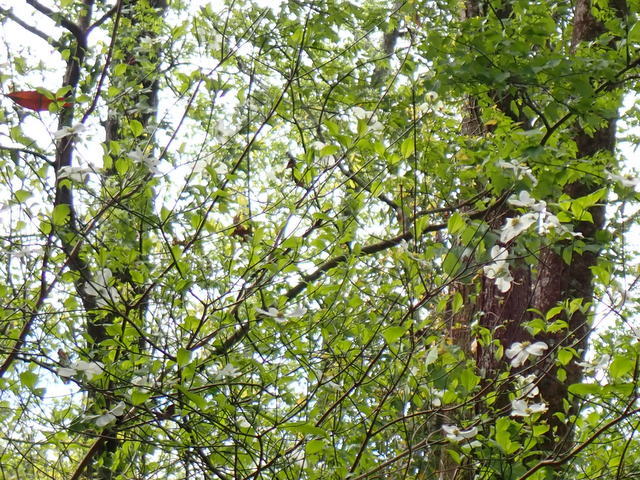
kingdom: Plantae
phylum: Tracheophyta
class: Magnoliopsida
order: Cornales
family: Cornaceae
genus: Cornus
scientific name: Cornus florida
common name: Flowering dogwood
